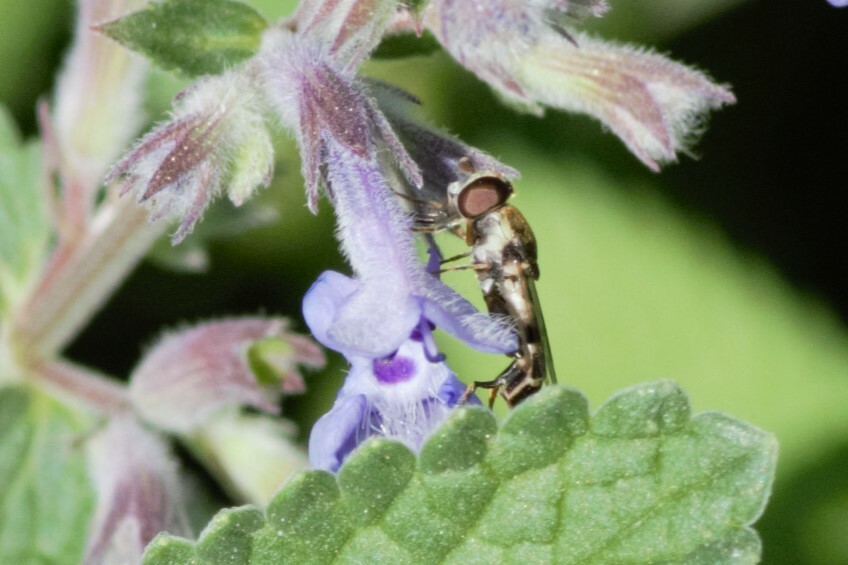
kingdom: Animalia
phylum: Arthropoda
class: Insecta
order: Diptera
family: Syrphidae
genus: Syritta
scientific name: Syritta pipiens
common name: Hover fly
